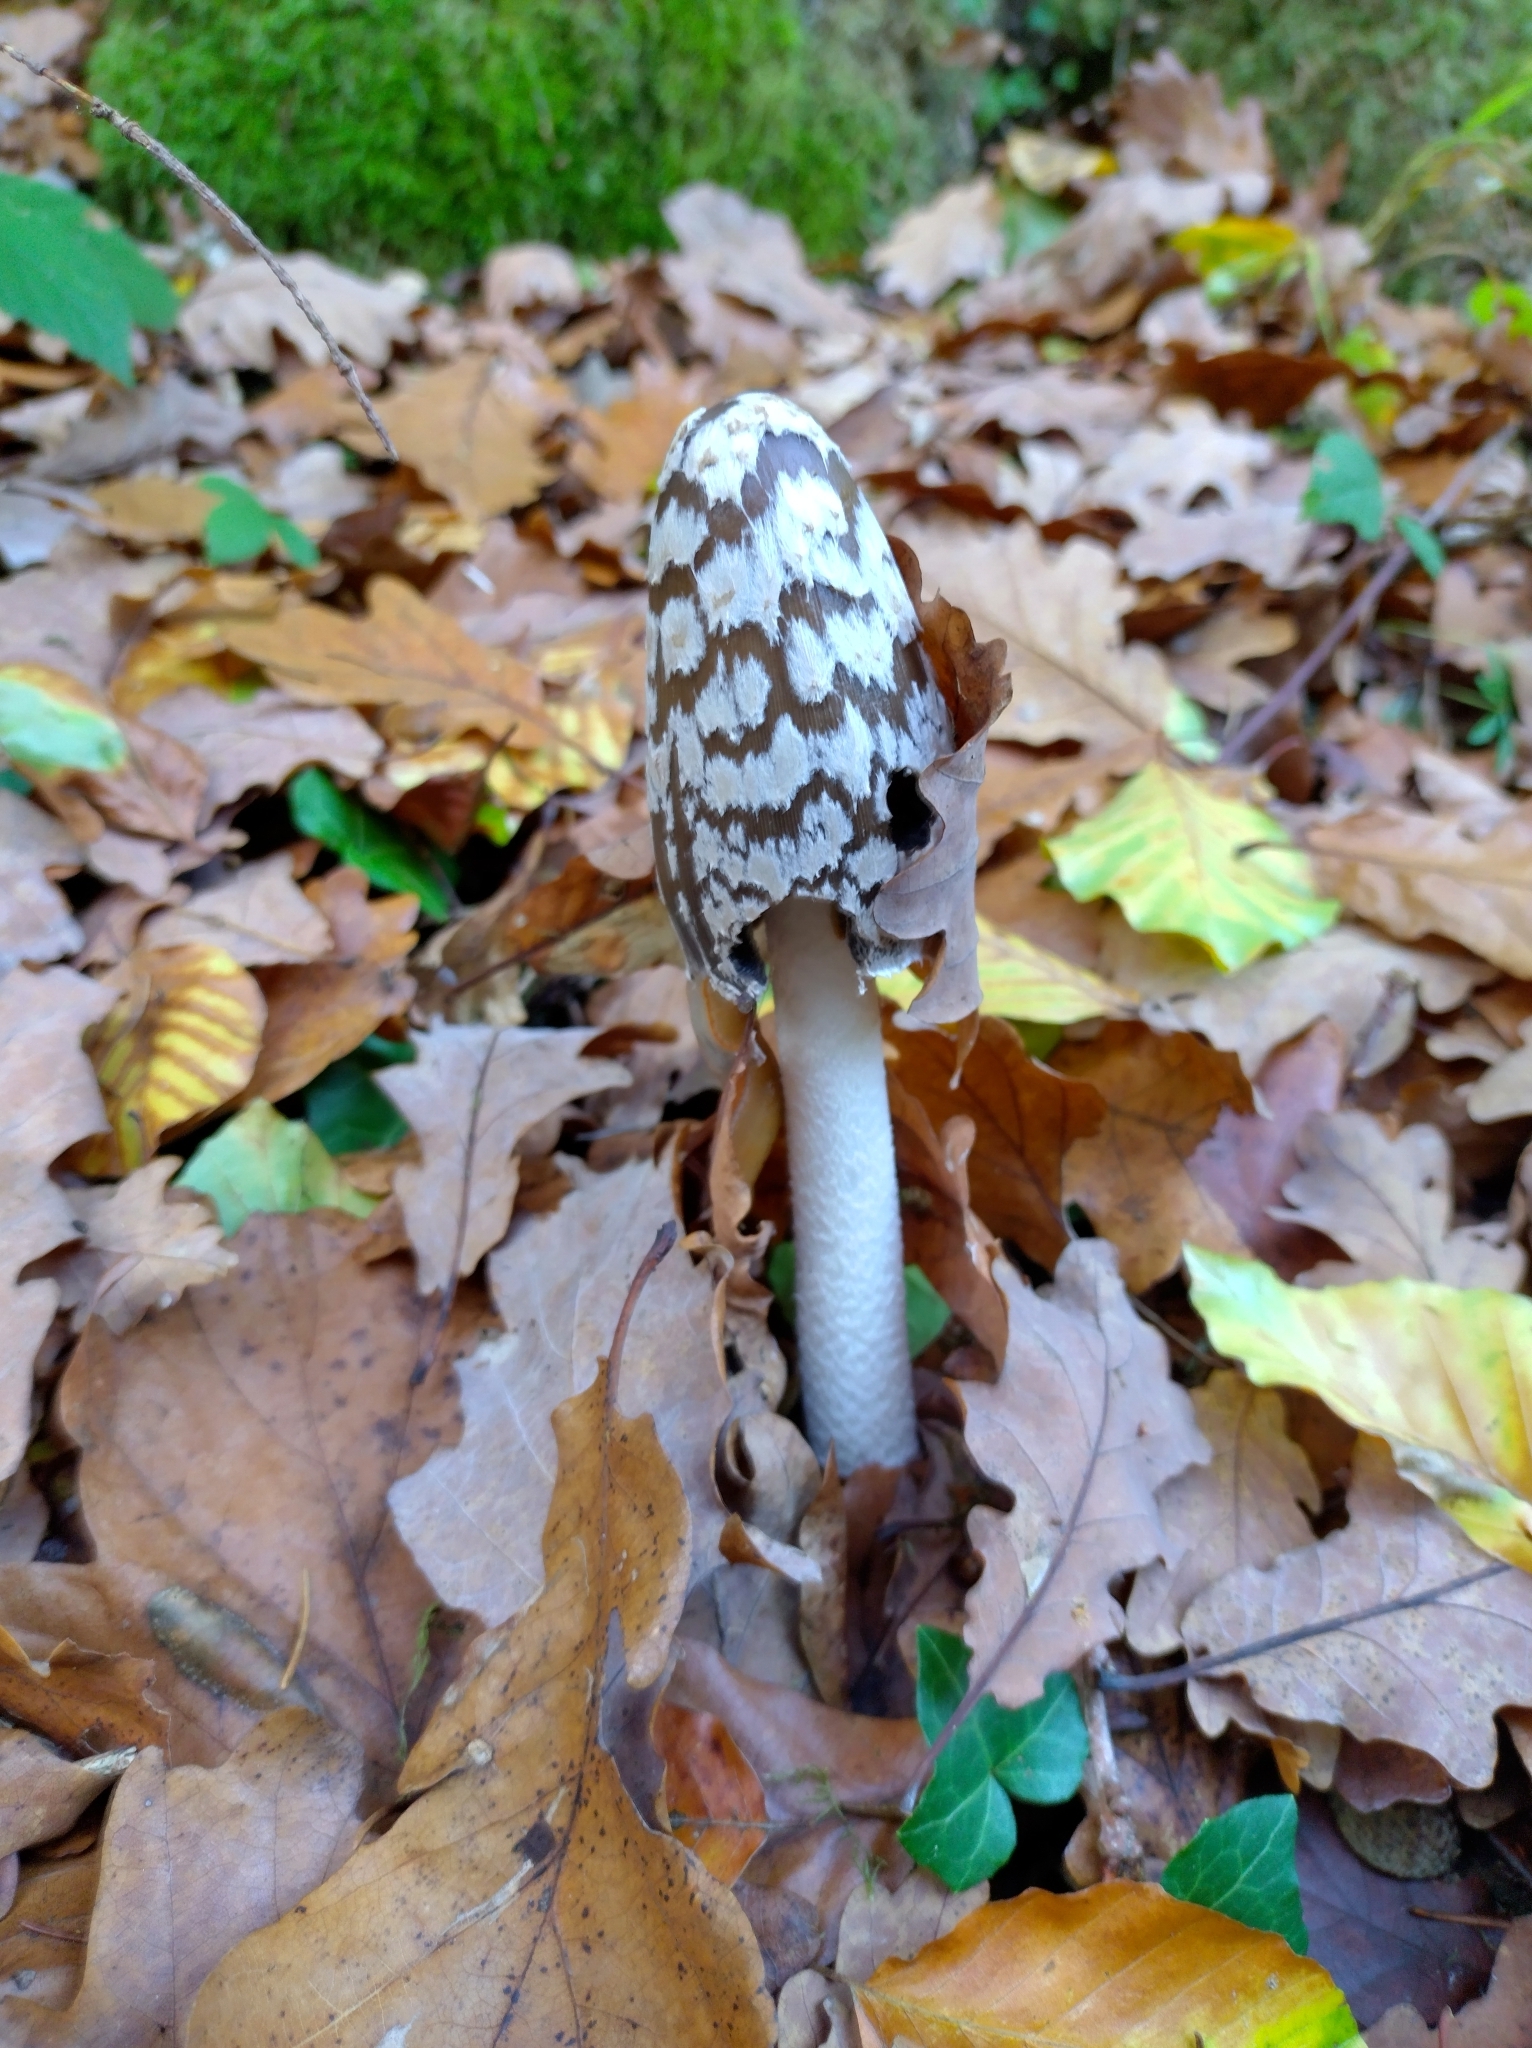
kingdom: Fungi
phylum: Basidiomycota
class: Agaricomycetes
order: Agaricales
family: Psathyrellaceae
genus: Coprinopsis
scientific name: Coprinopsis picacea
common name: Magpie inkcap
